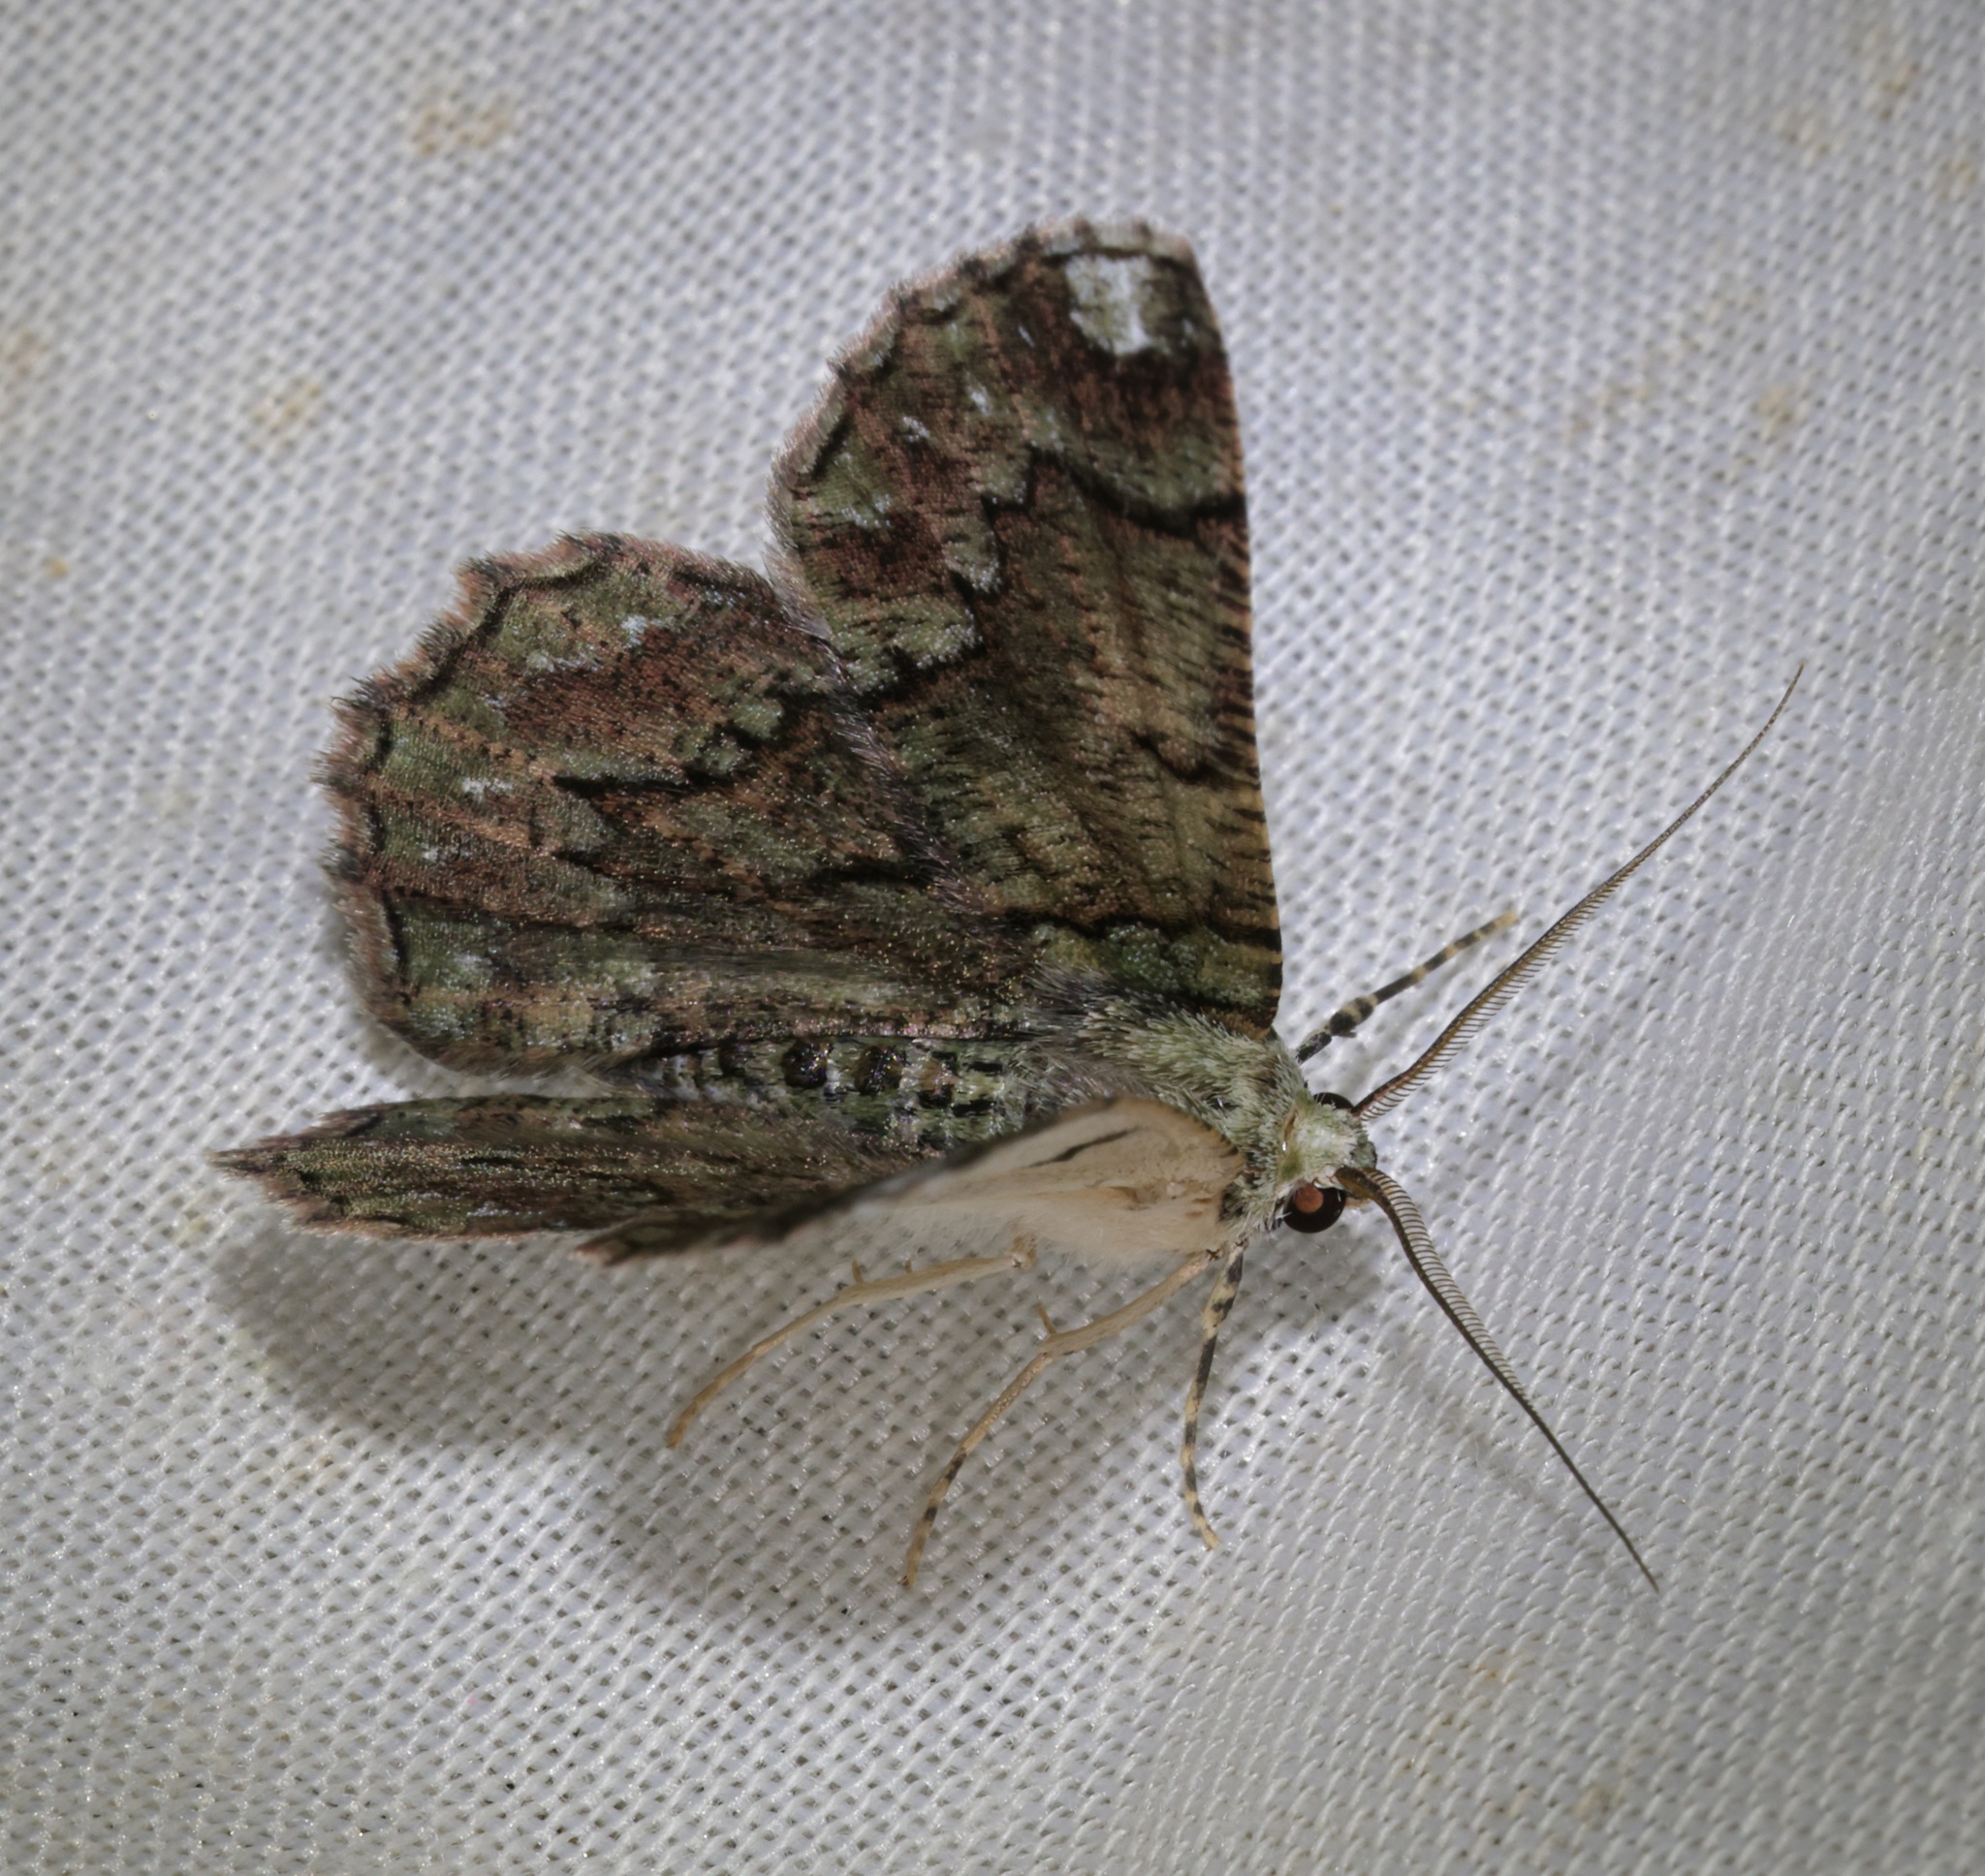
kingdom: Animalia
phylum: Arthropoda
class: Insecta
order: Lepidoptera
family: Geometridae
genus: Lophophelma
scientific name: Lophophelma calaurops
